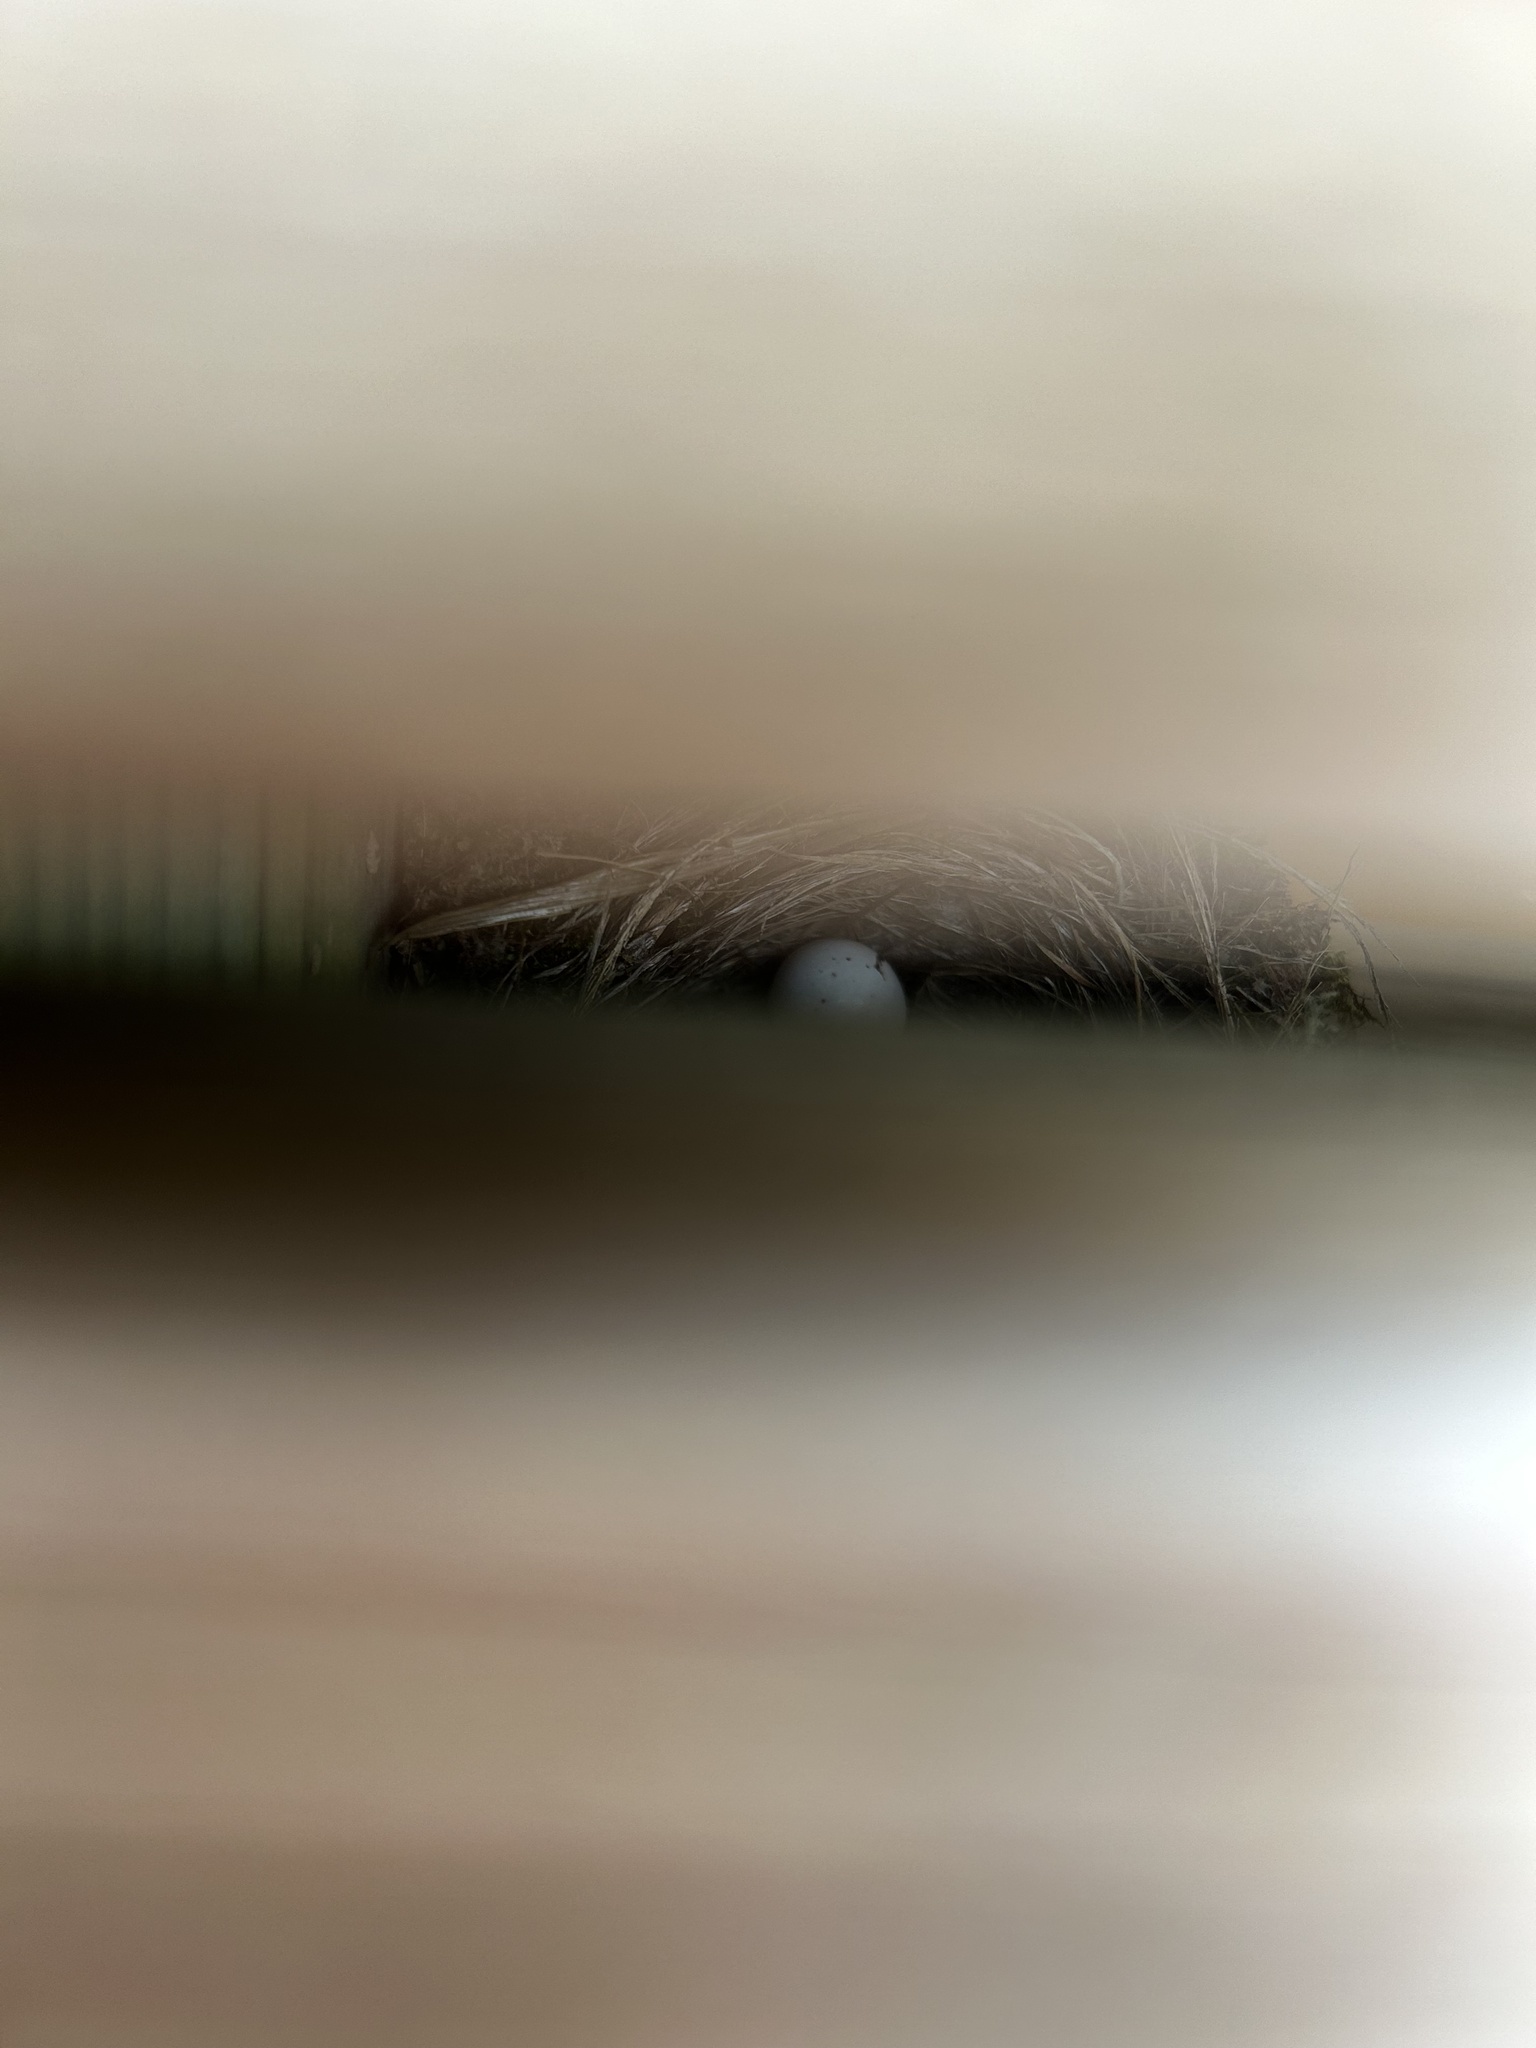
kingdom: Animalia
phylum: Chordata
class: Aves
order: Passeriformes
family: Tyrannidae
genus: Sayornis
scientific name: Sayornis phoebe
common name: Eastern phoebe
